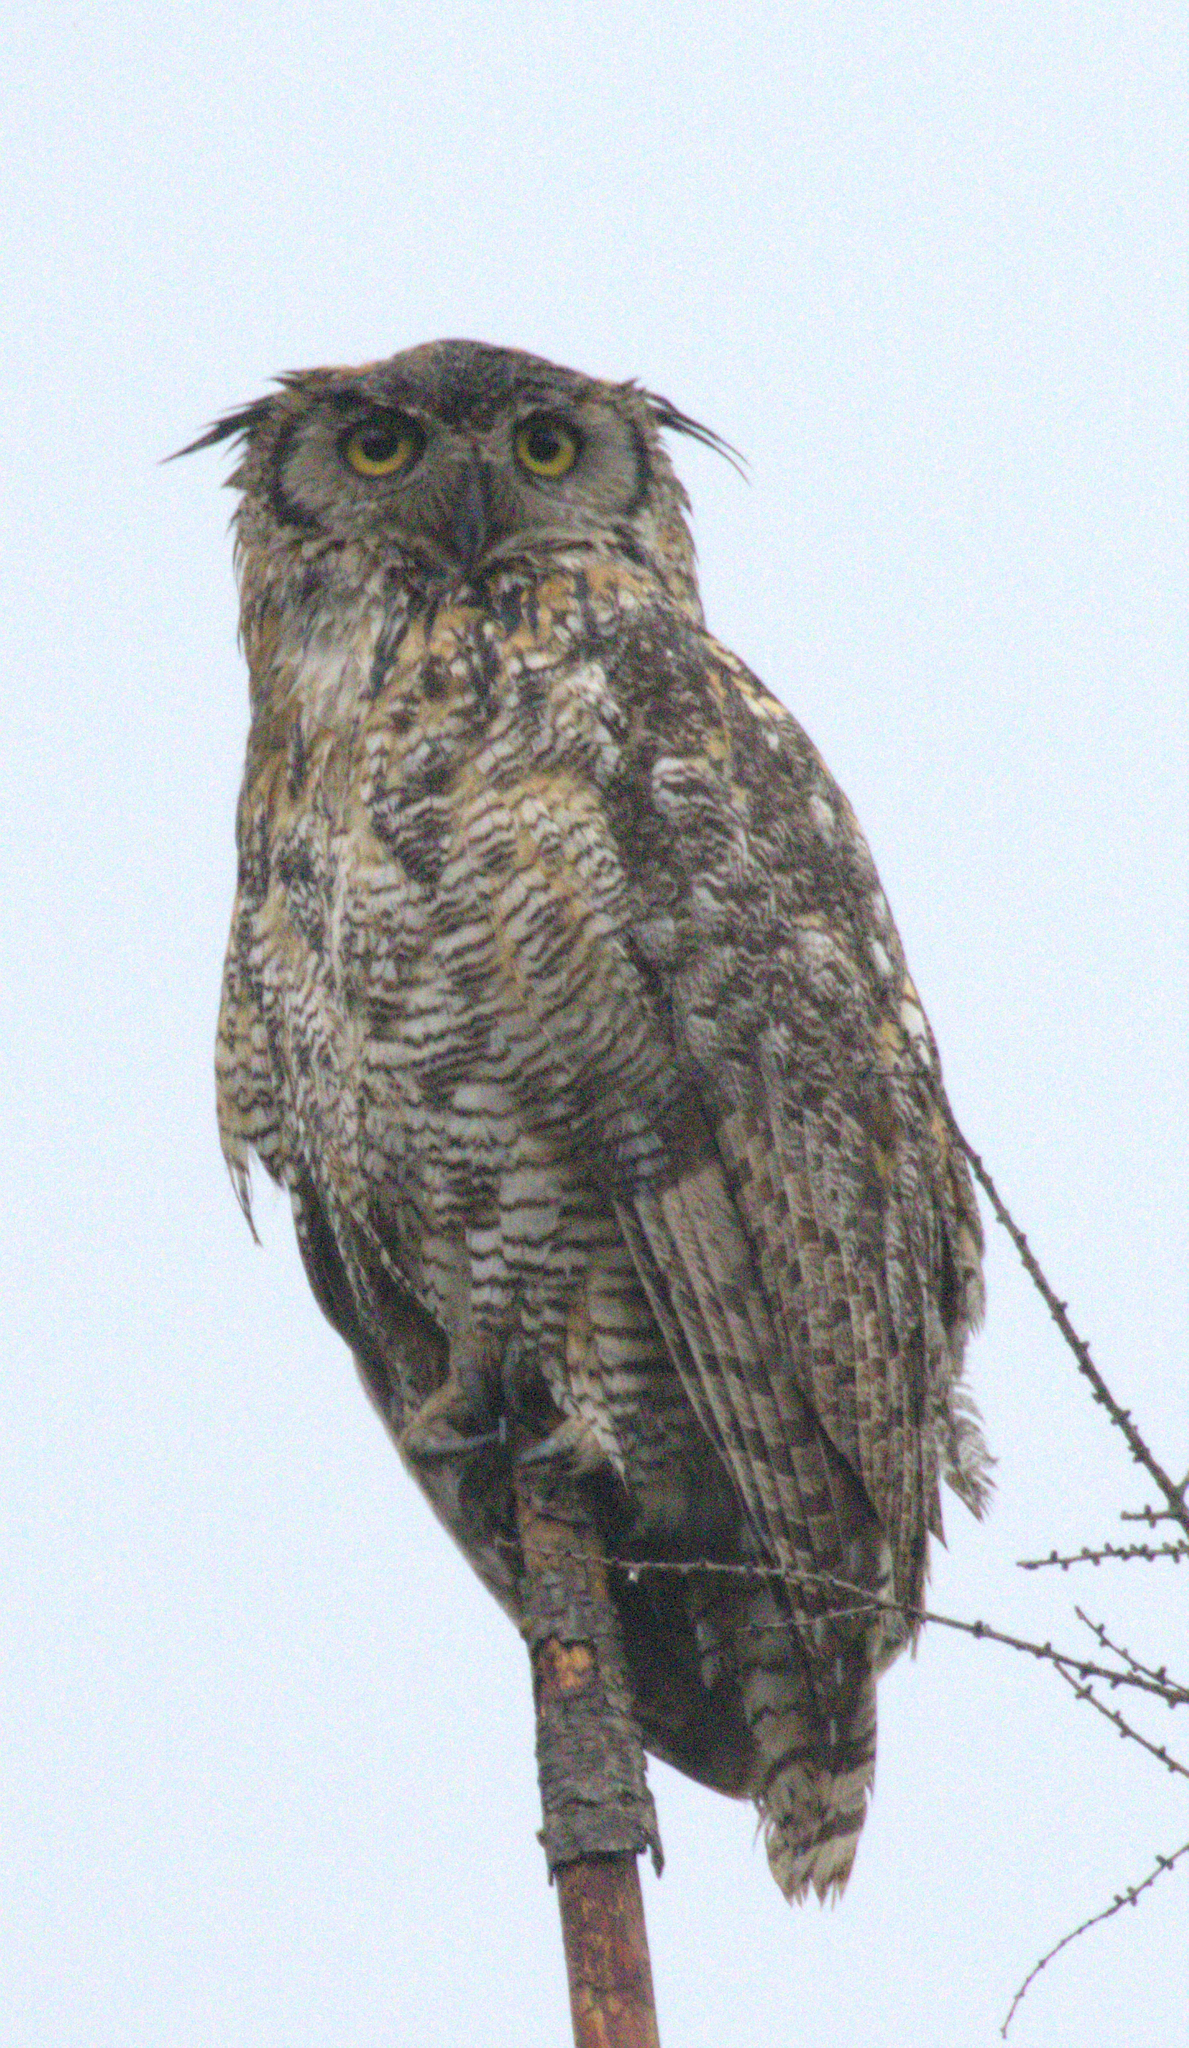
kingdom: Animalia
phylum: Chordata
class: Aves
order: Strigiformes
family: Strigidae
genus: Bubo
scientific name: Bubo virginianus
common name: Great horned owl
